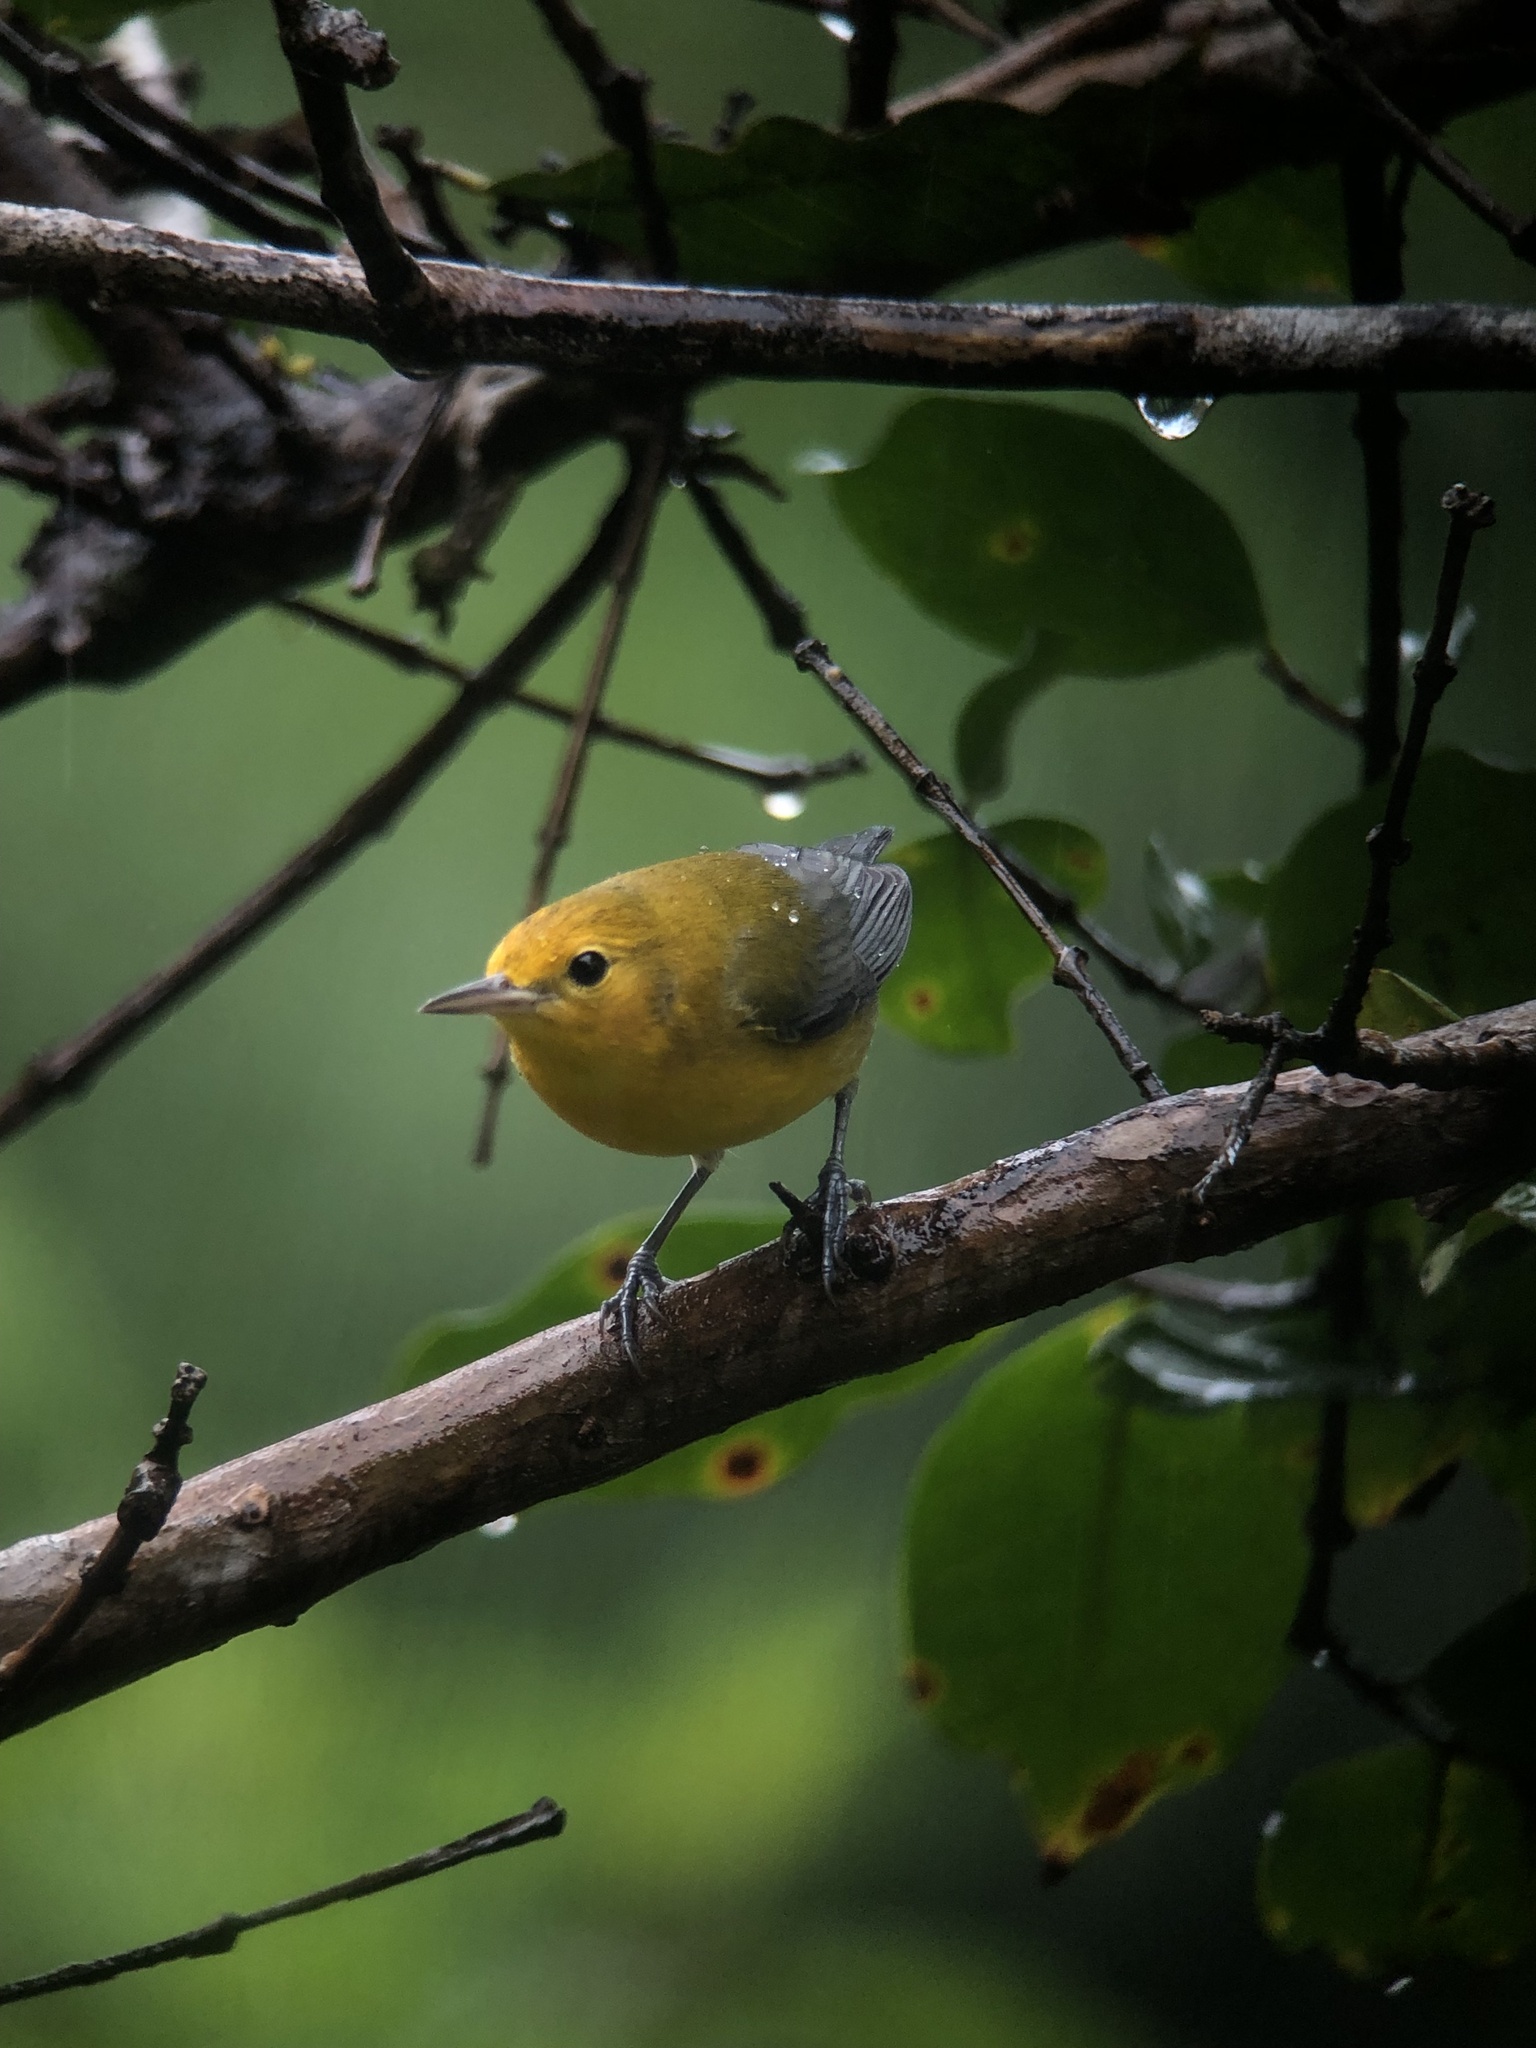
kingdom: Animalia
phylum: Chordata
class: Aves
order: Passeriformes
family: Parulidae
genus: Protonotaria
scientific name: Protonotaria citrea
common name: Prothonotary warbler
